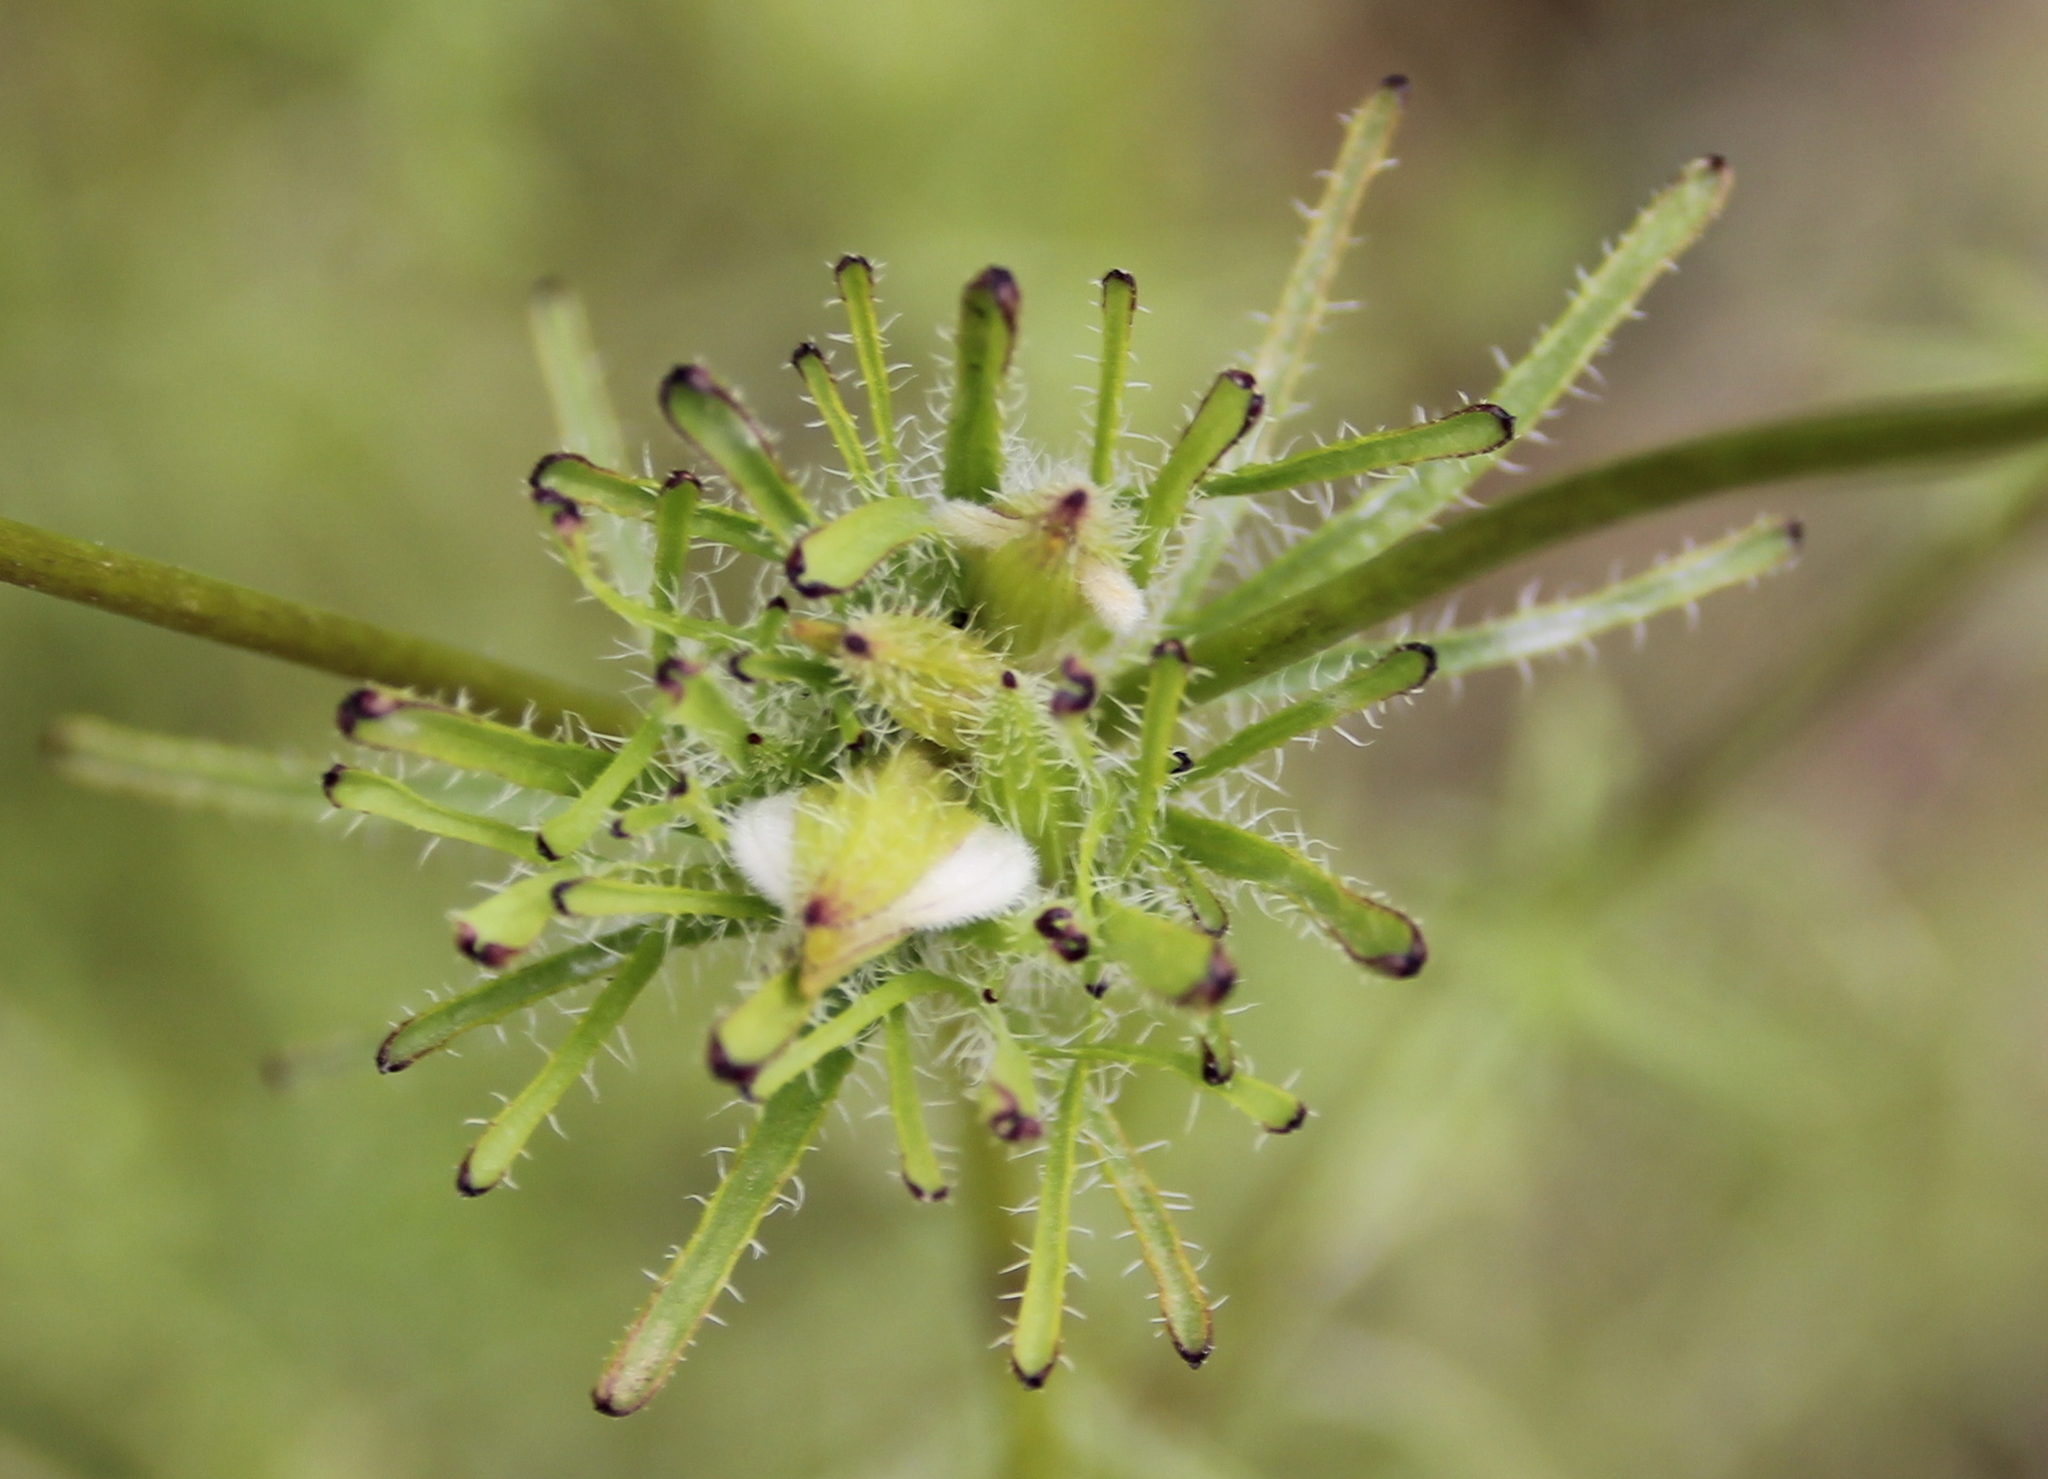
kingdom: Plantae
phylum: Tracheophyta
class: Magnoliopsida
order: Lamiales
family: Orobanchaceae
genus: Cordylanthus
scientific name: Cordylanthus rigidus
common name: Stiff-branch bird's-beak
